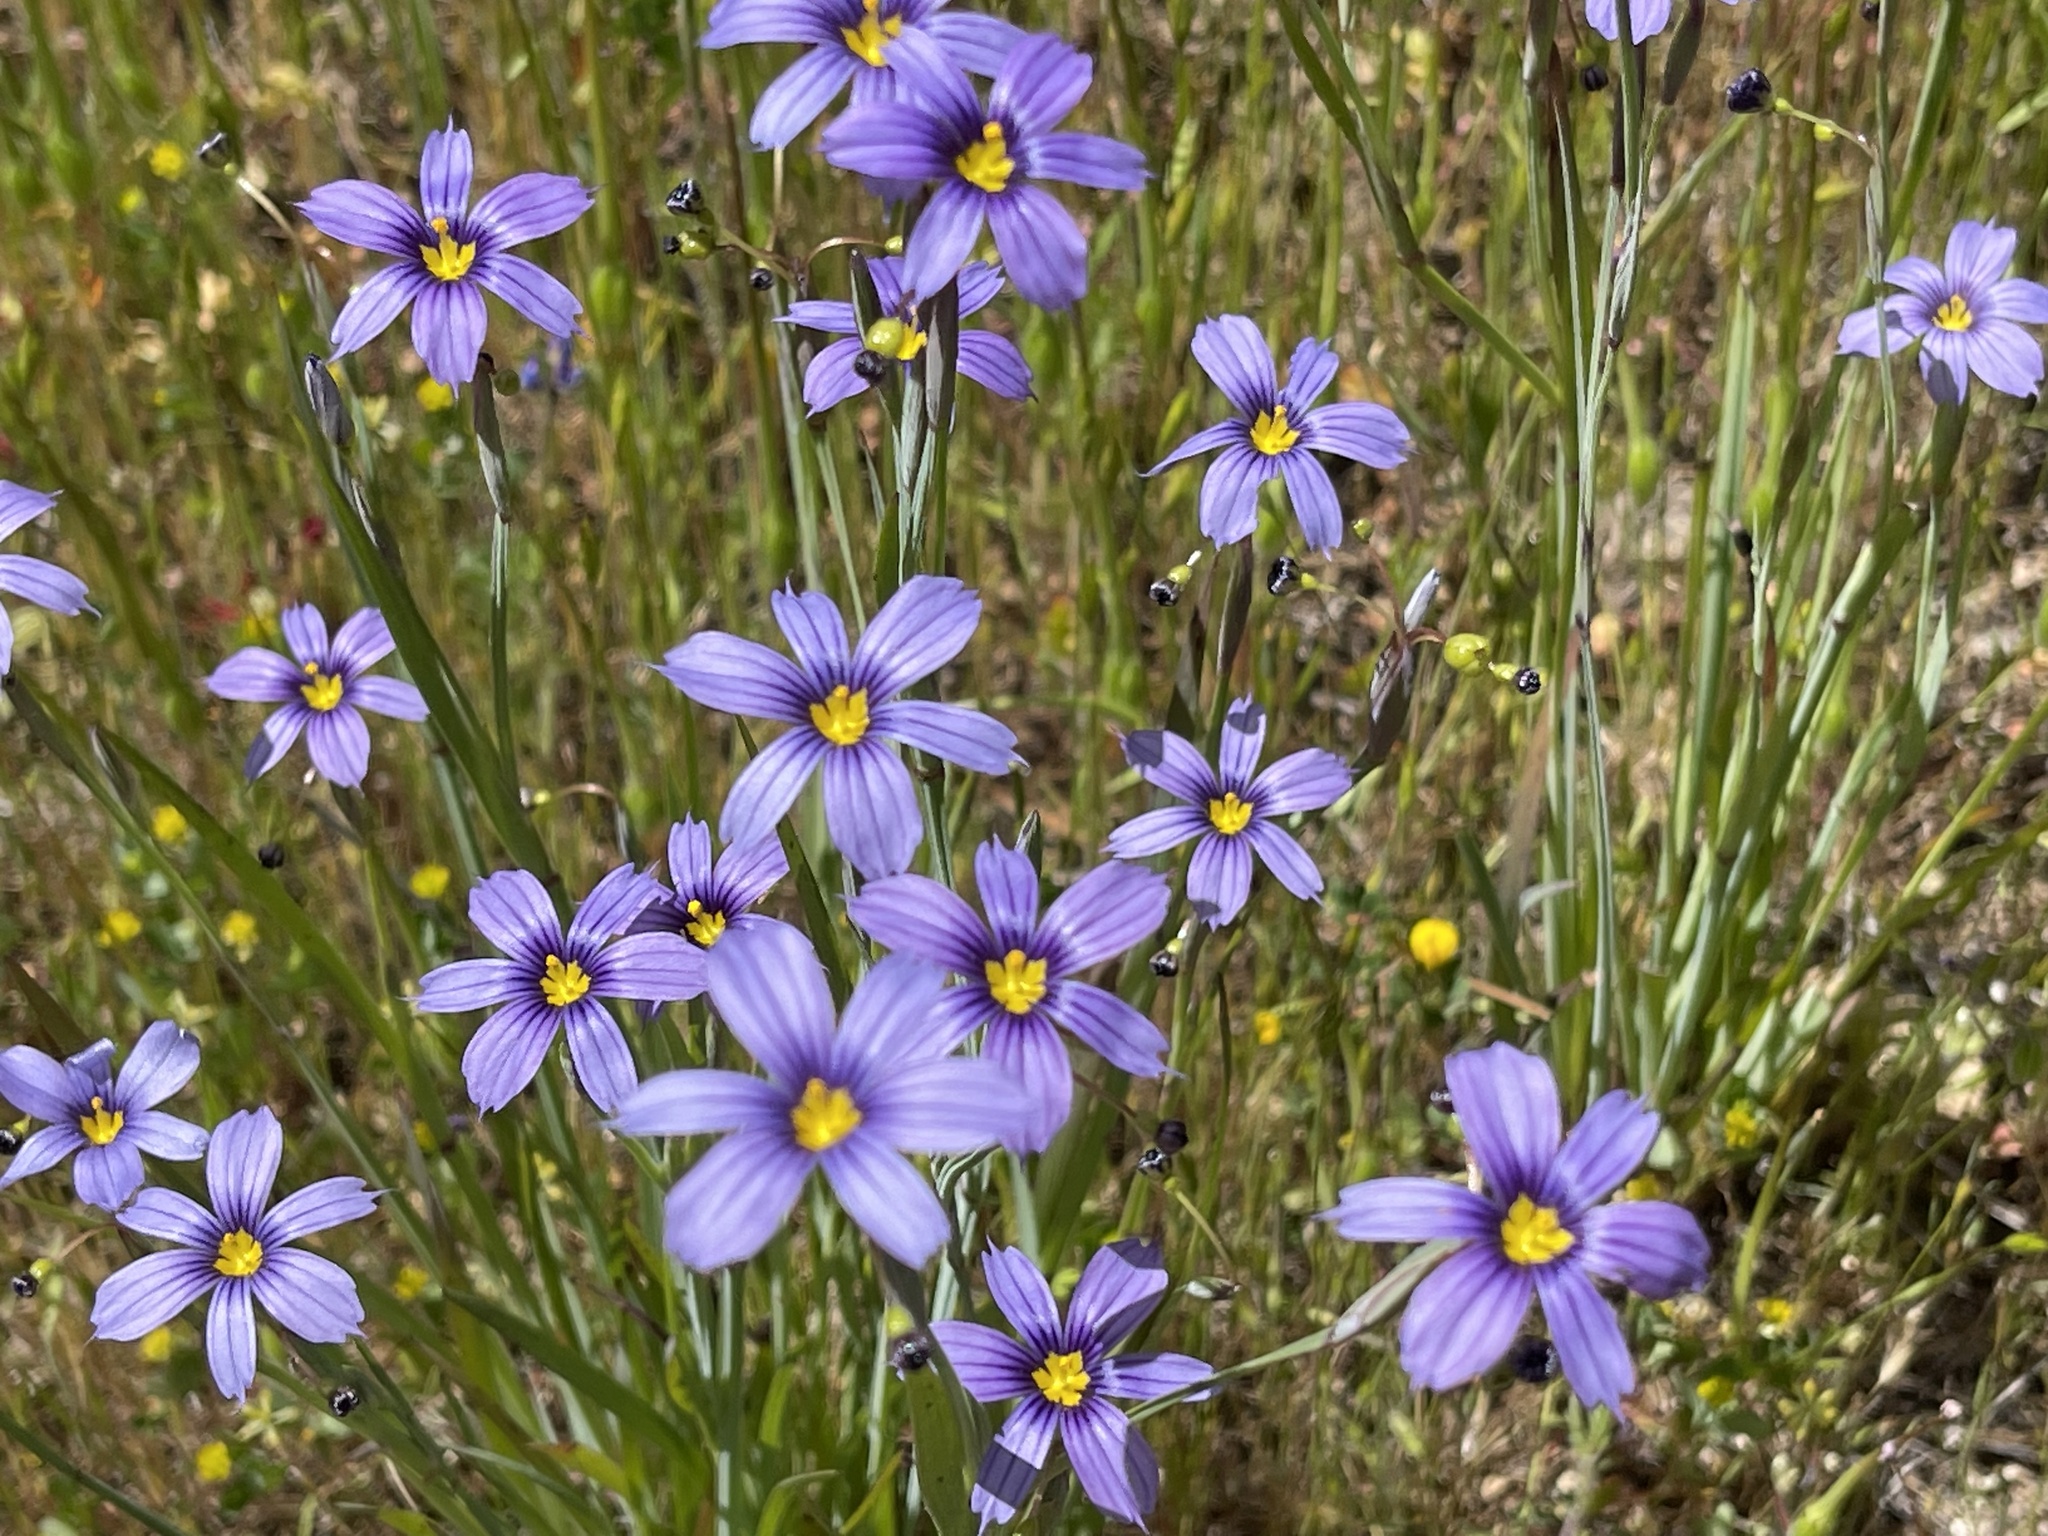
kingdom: Plantae
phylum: Tracheophyta
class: Liliopsida
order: Asparagales
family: Iridaceae
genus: Sisyrinchium
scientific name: Sisyrinchium bellum
